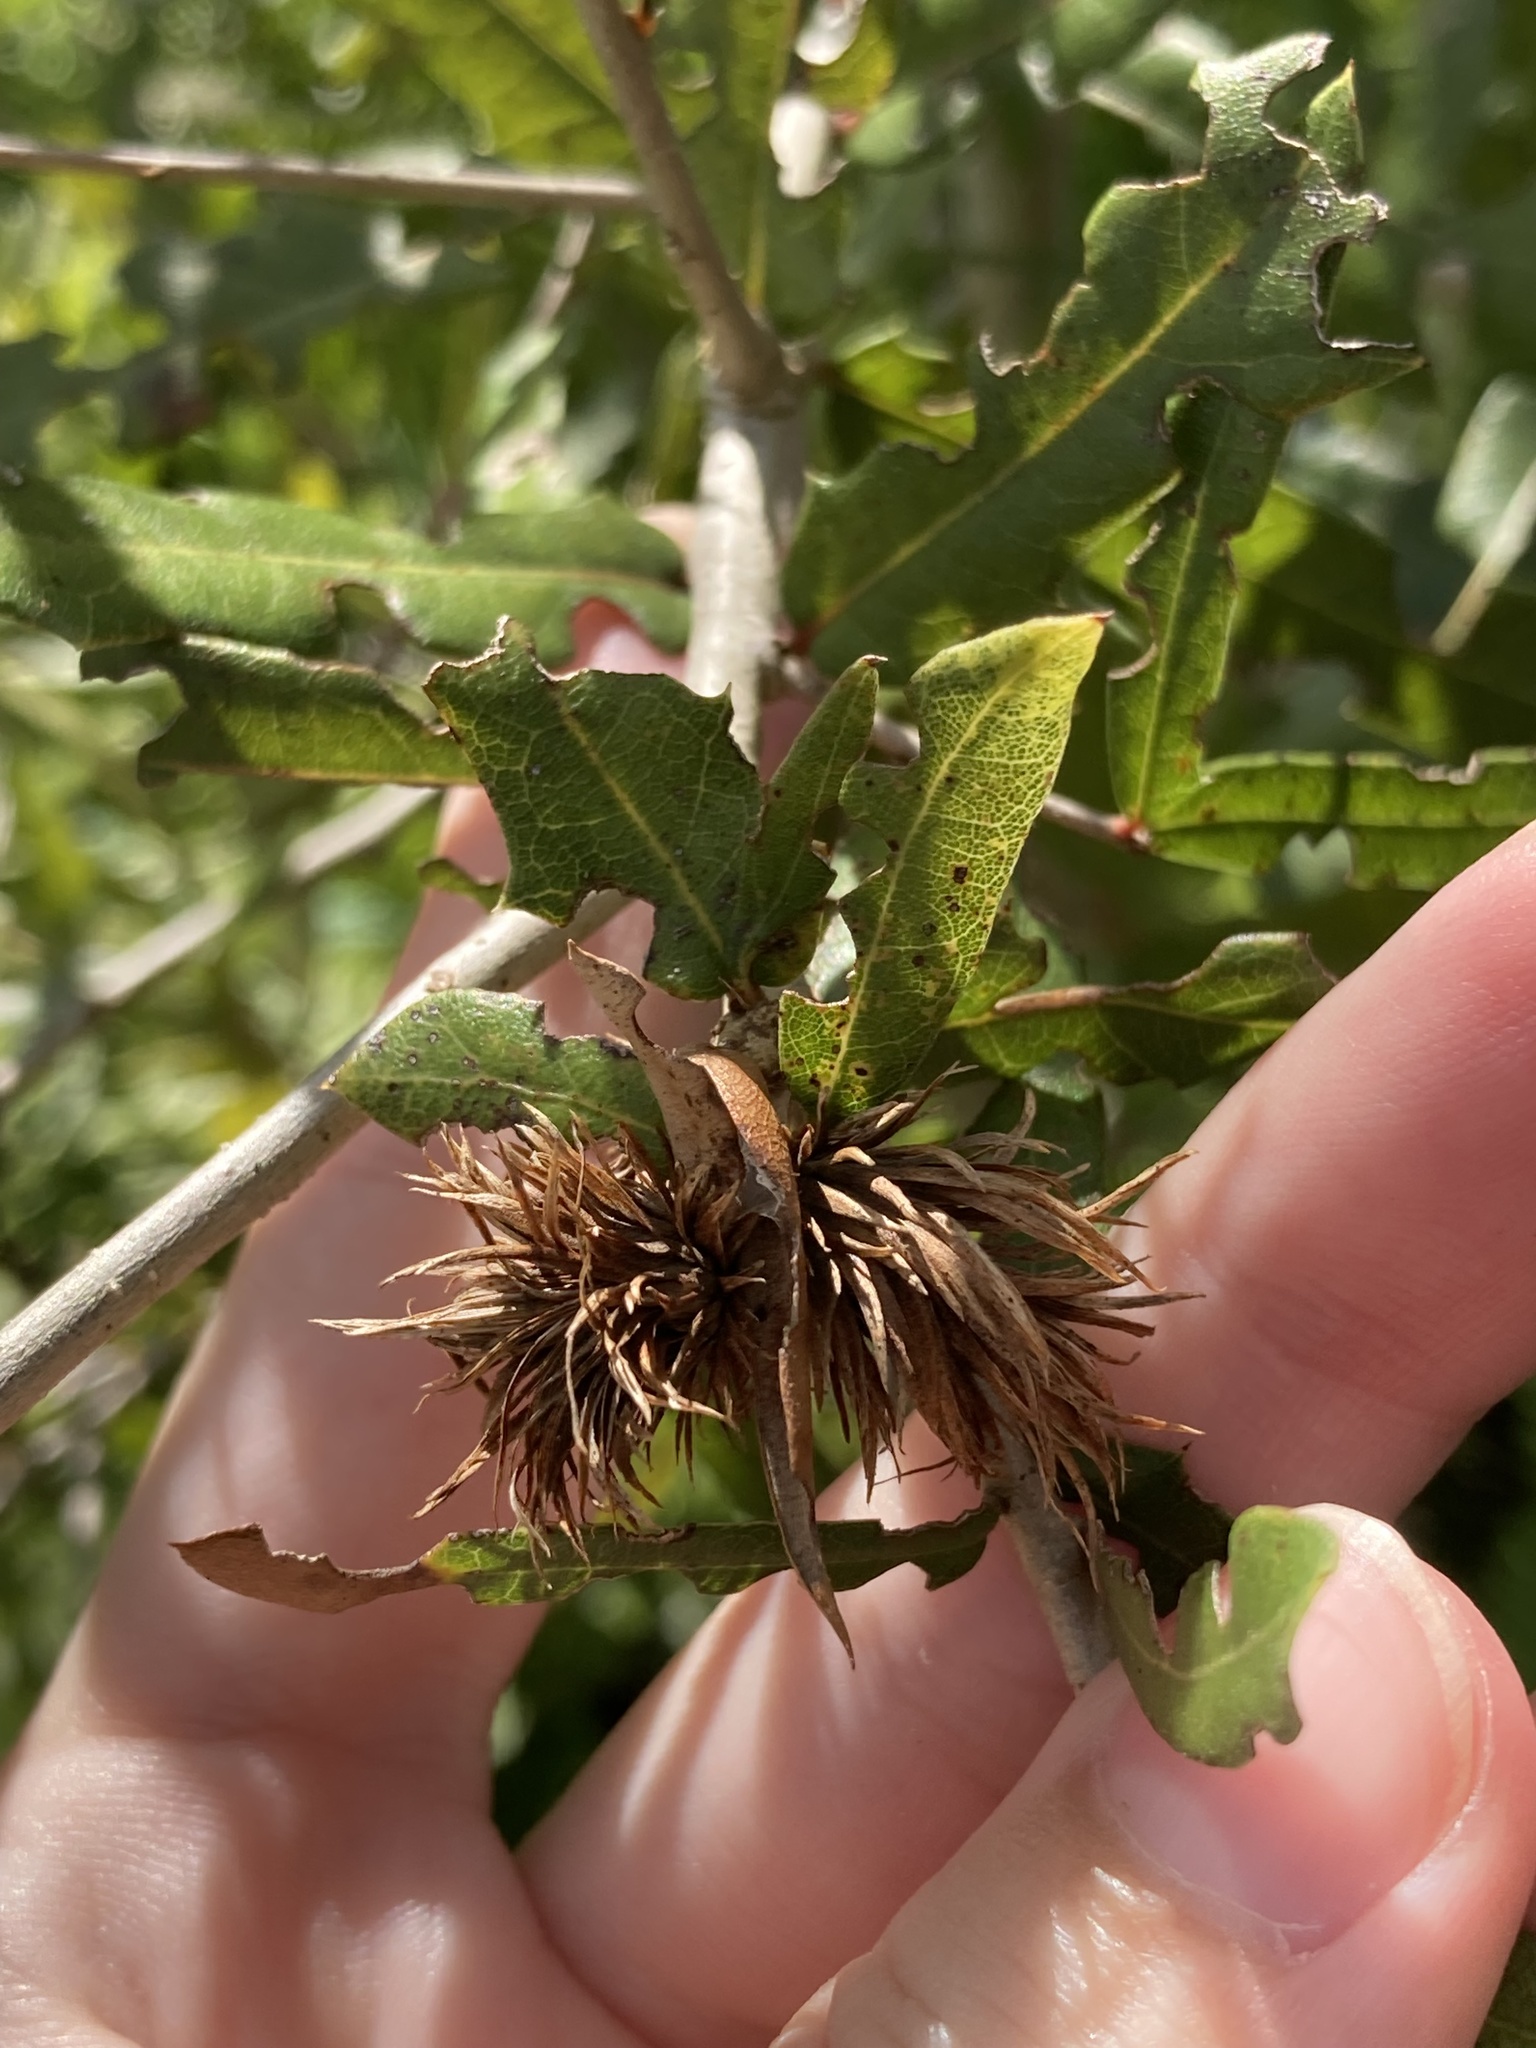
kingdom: Animalia
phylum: Arthropoda
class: Insecta
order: Hymenoptera
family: Cynipidae
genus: Andricus
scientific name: Andricus quercusfoliatus
